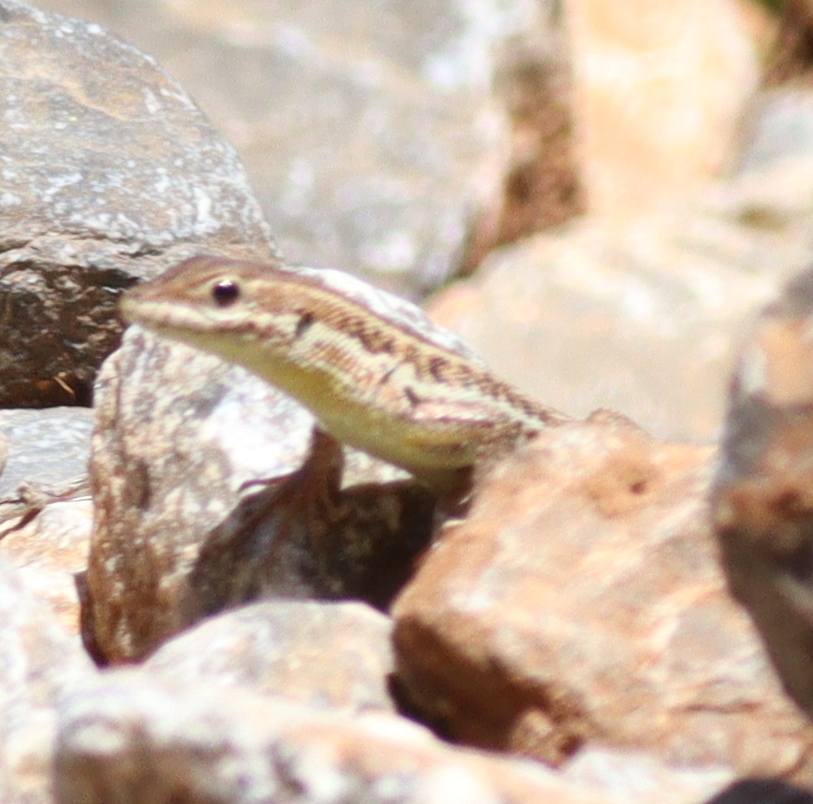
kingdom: Animalia
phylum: Chordata
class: Squamata
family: Lacertidae
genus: Ophisops
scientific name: Ophisops elegans
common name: Snake-eyed lizard
